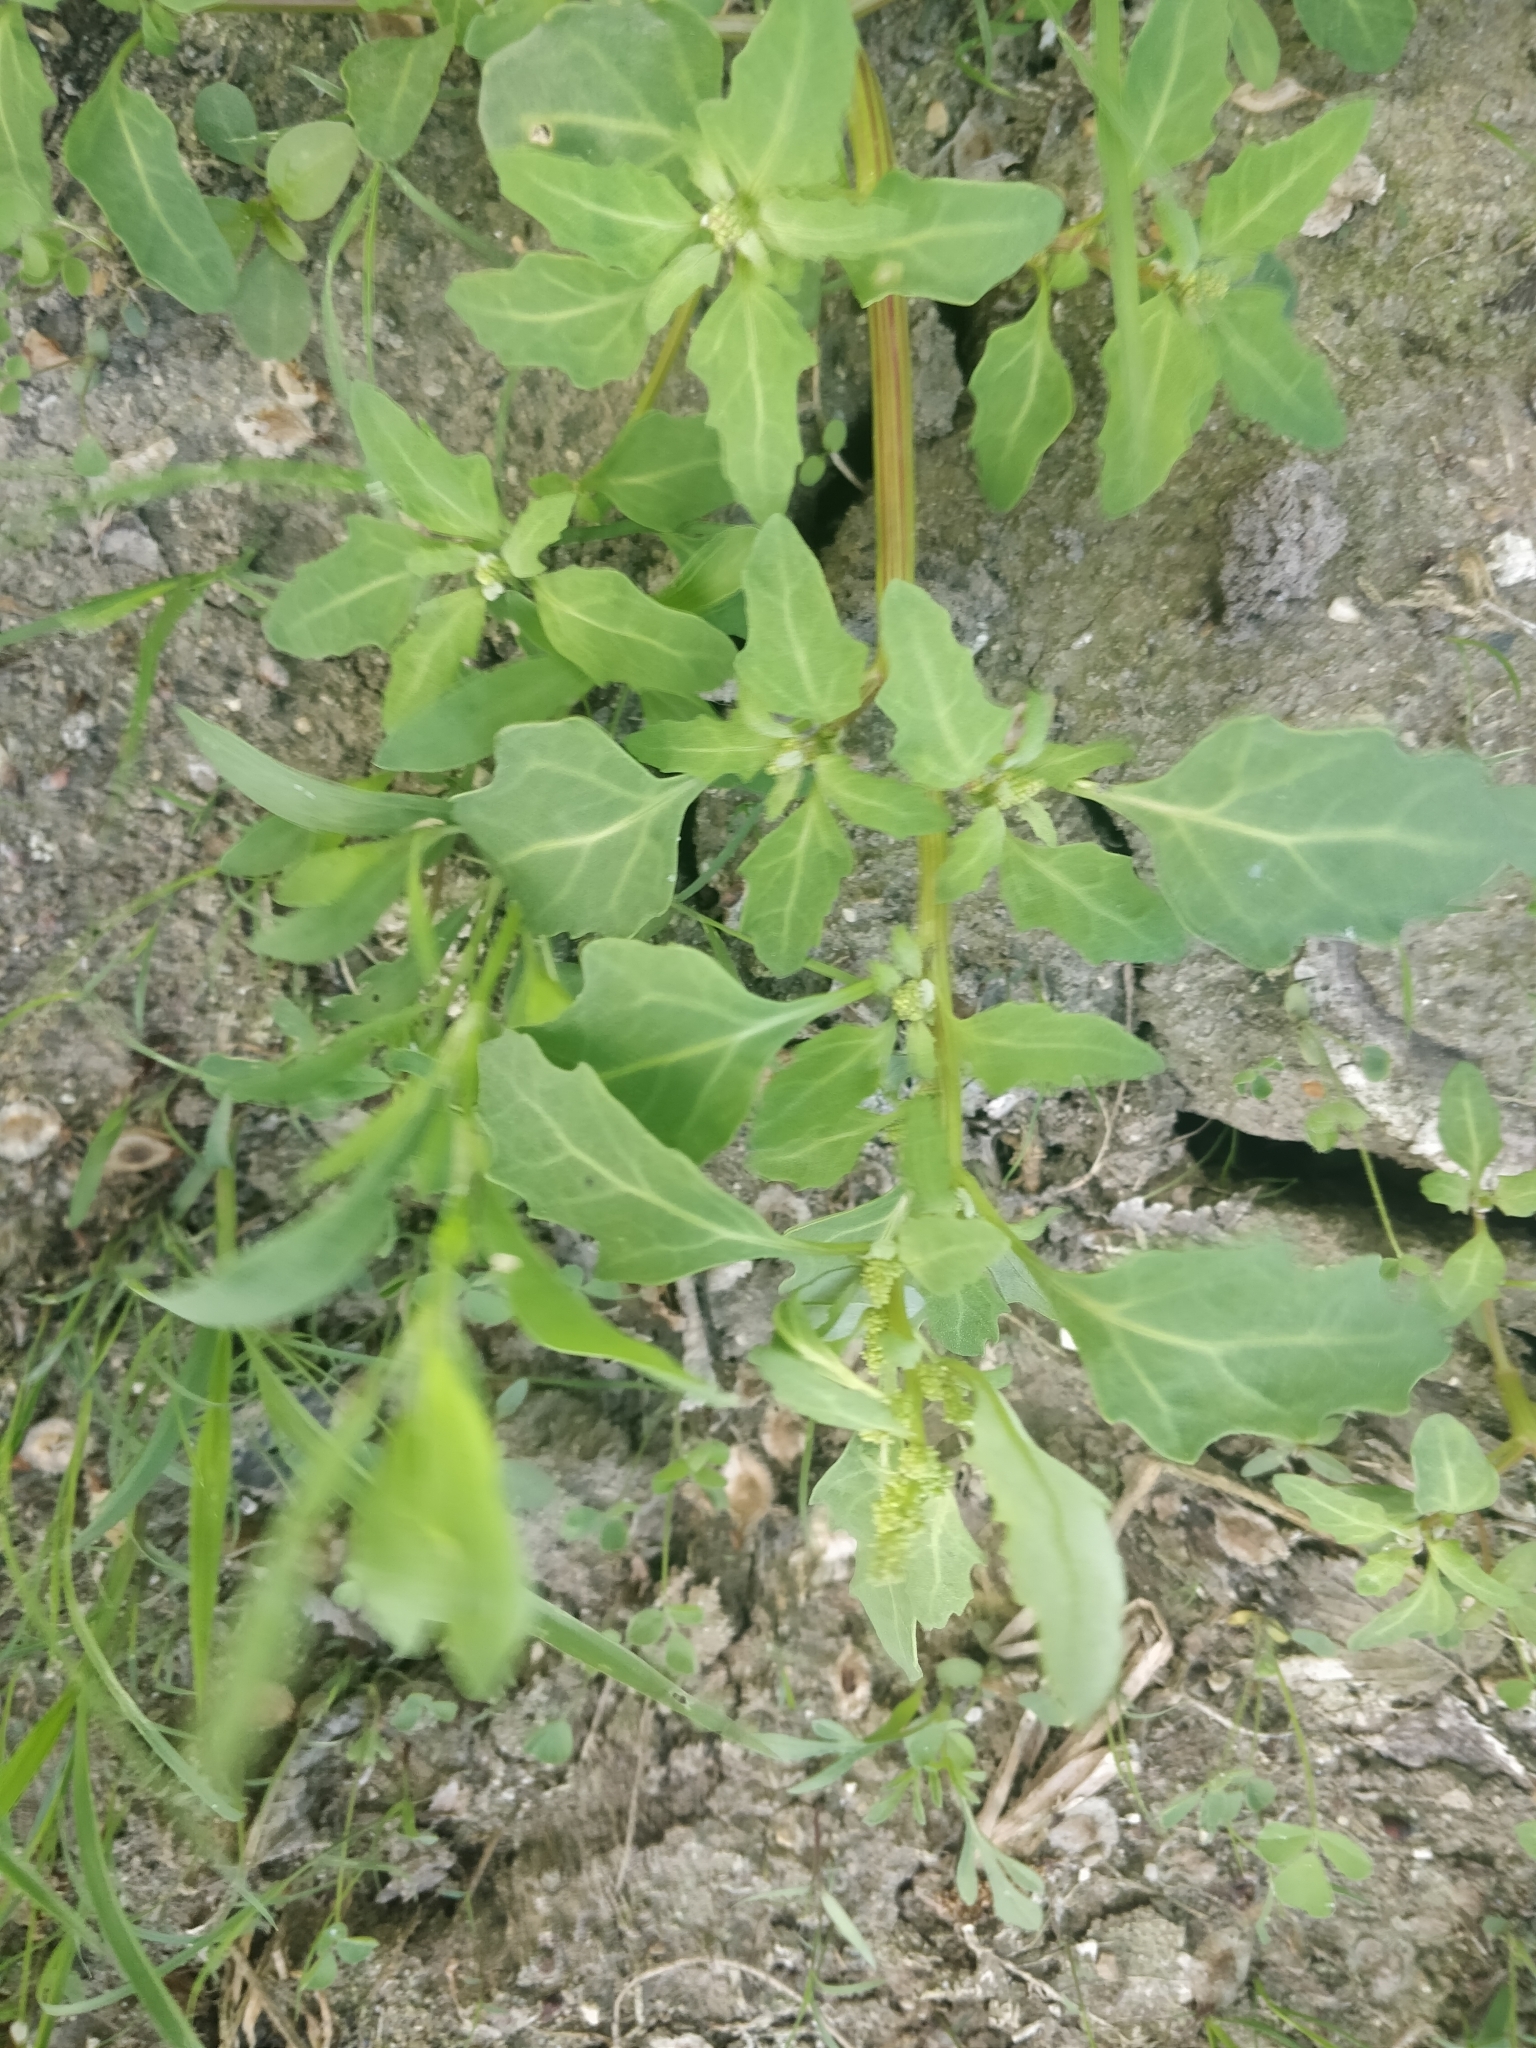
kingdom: Plantae
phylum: Tracheophyta
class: Magnoliopsida
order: Caryophyllales
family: Amaranthaceae
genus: Oxybasis
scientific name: Oxybasis glauca
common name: Glaucous goosefoot
